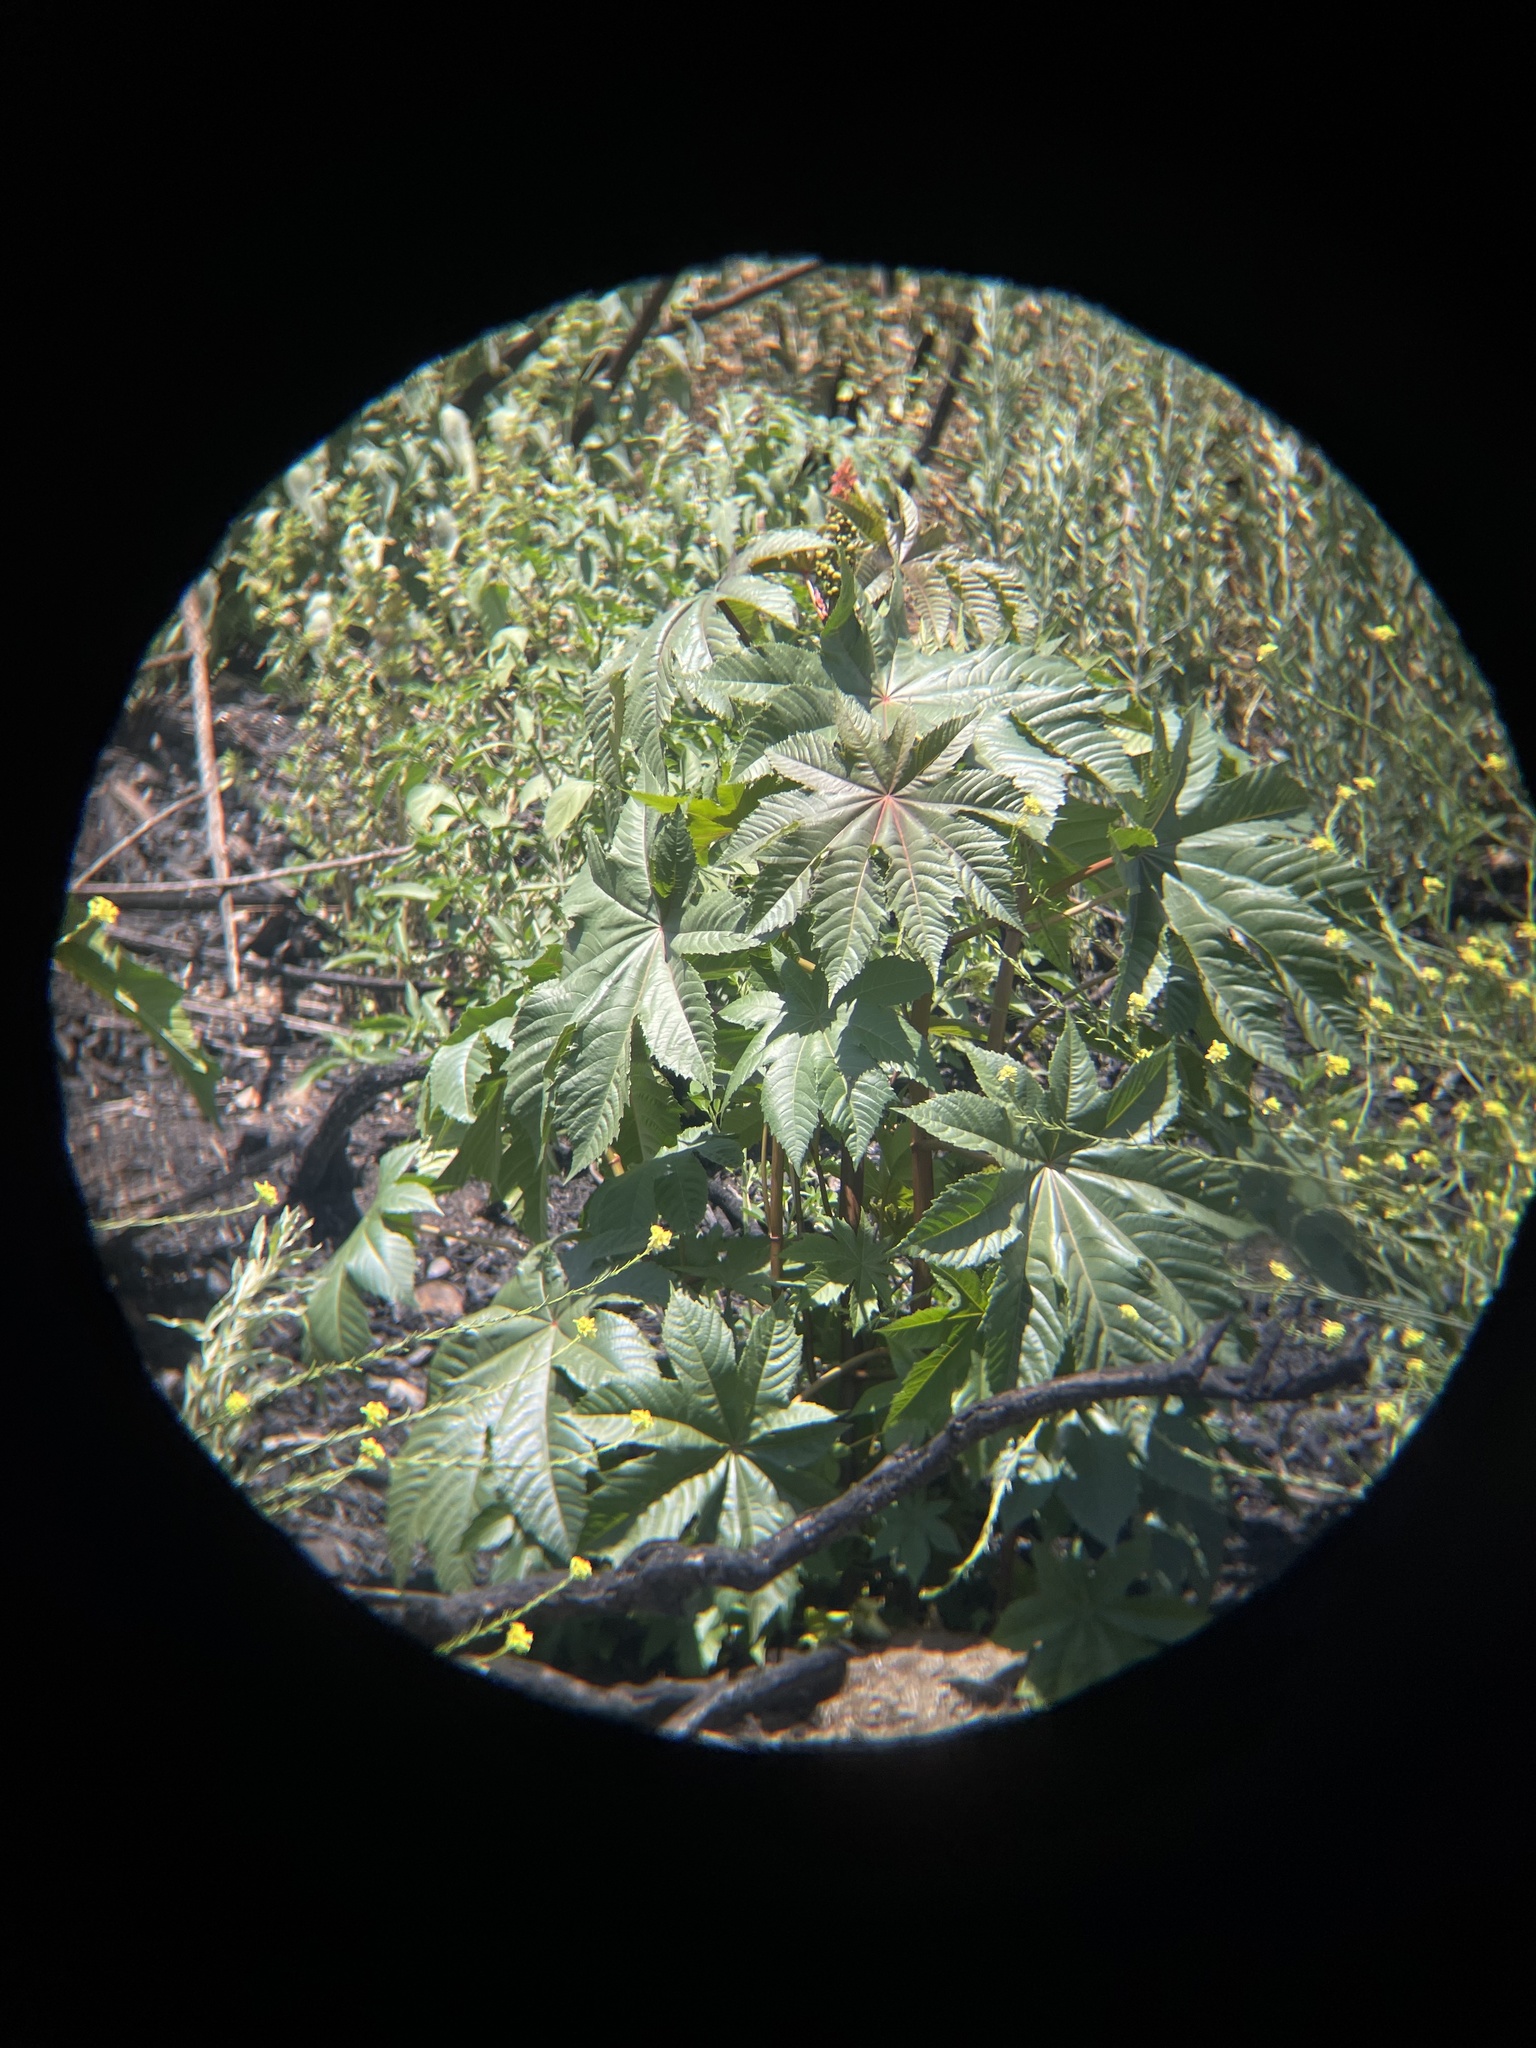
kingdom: Plantae
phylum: Tracheophyta
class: Magnoliopsida
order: Malpighiales
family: Euphorbiaceae
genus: Ricinus
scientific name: Ricinus communis
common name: Castor-oil-plant
